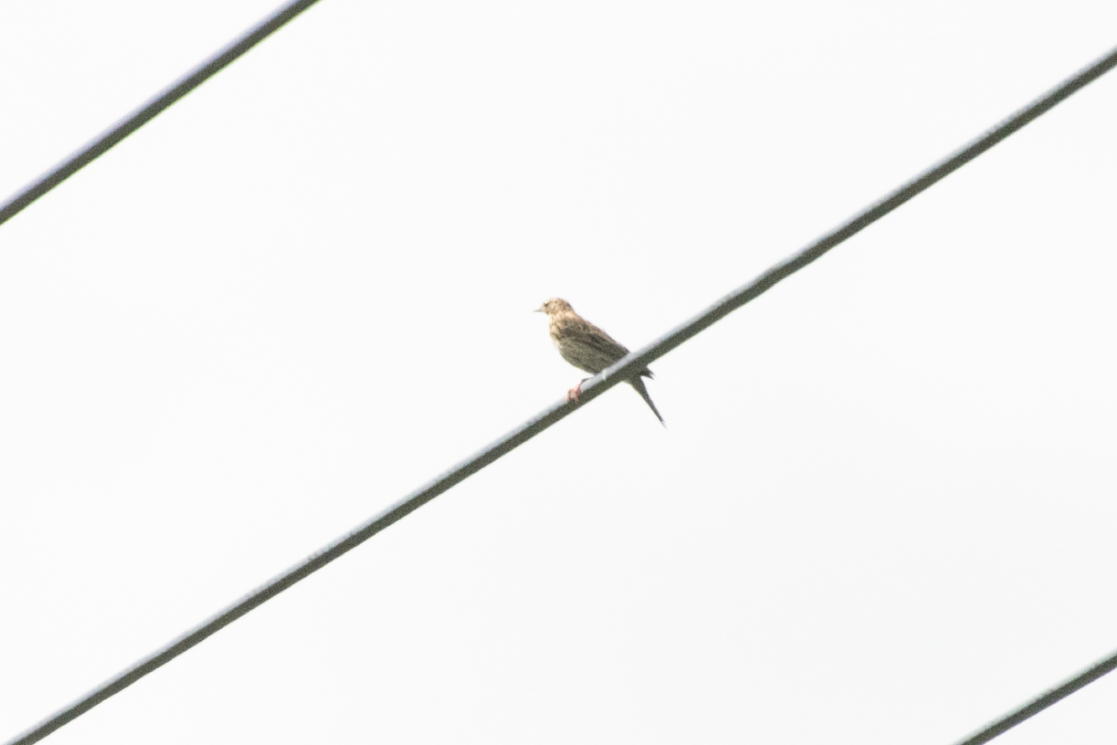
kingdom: Animalia
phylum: Chordata
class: Aves
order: Passeriformes
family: Motacillidae
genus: Anthus
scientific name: Anthus trivialis
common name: Tree pipit
